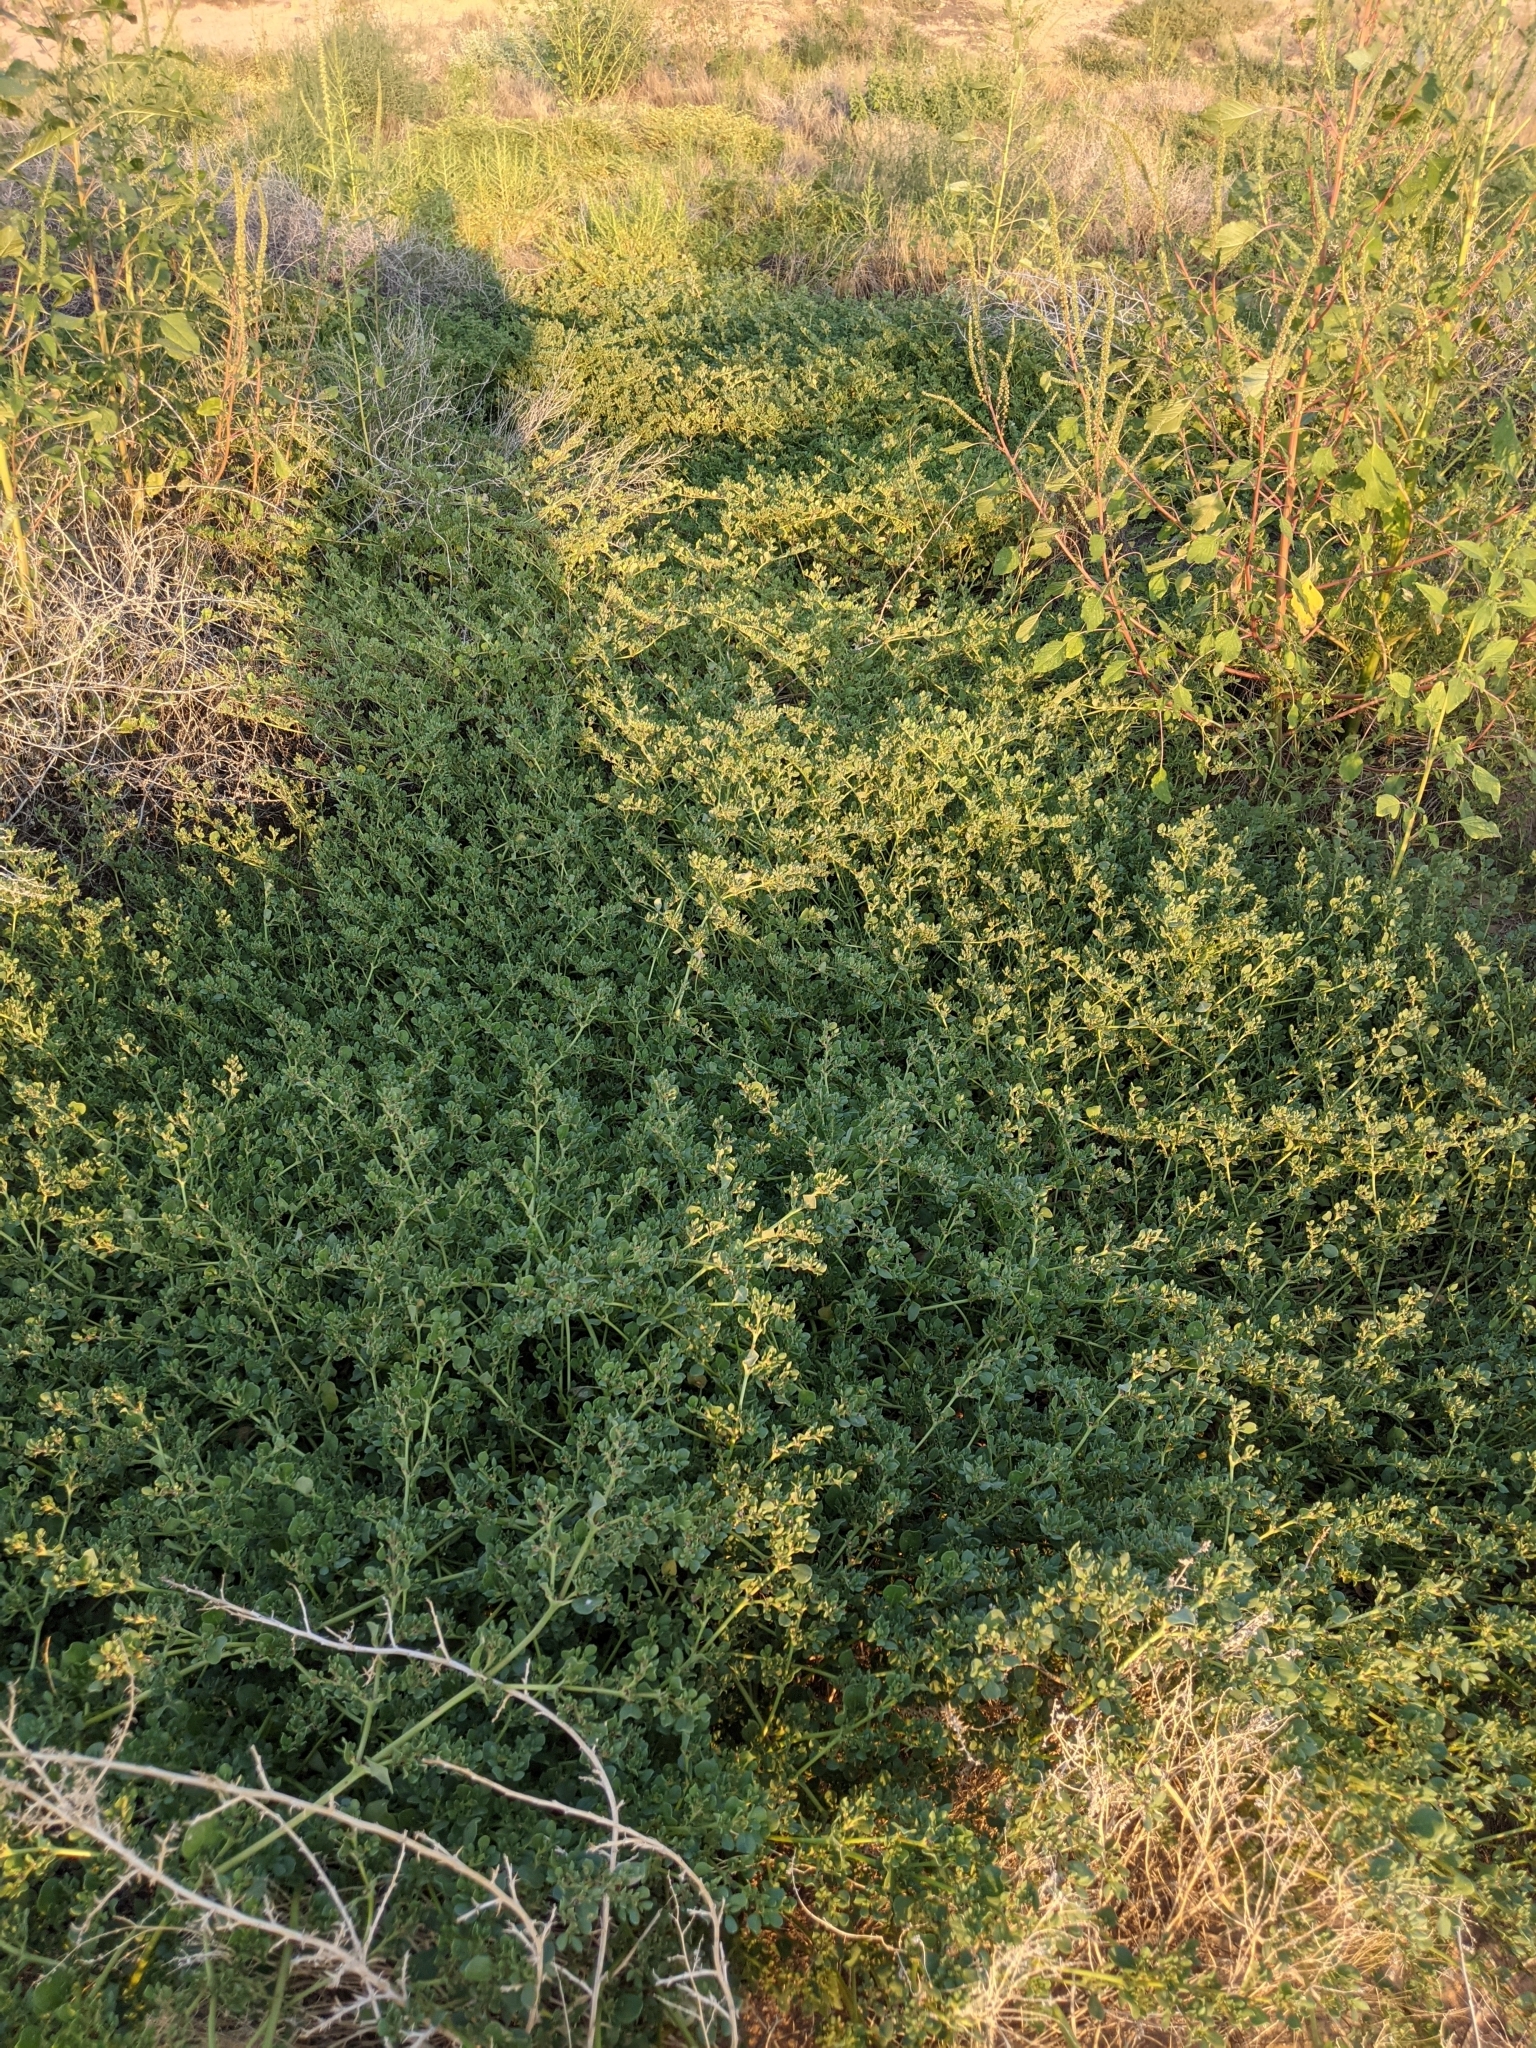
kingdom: Plantae
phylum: Tracheophyta
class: Magnoliopsida
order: Caryophyllales
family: Aizoaceae
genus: Trianthema
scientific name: Trianthema portulacastrum
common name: Desert horsepurslane
